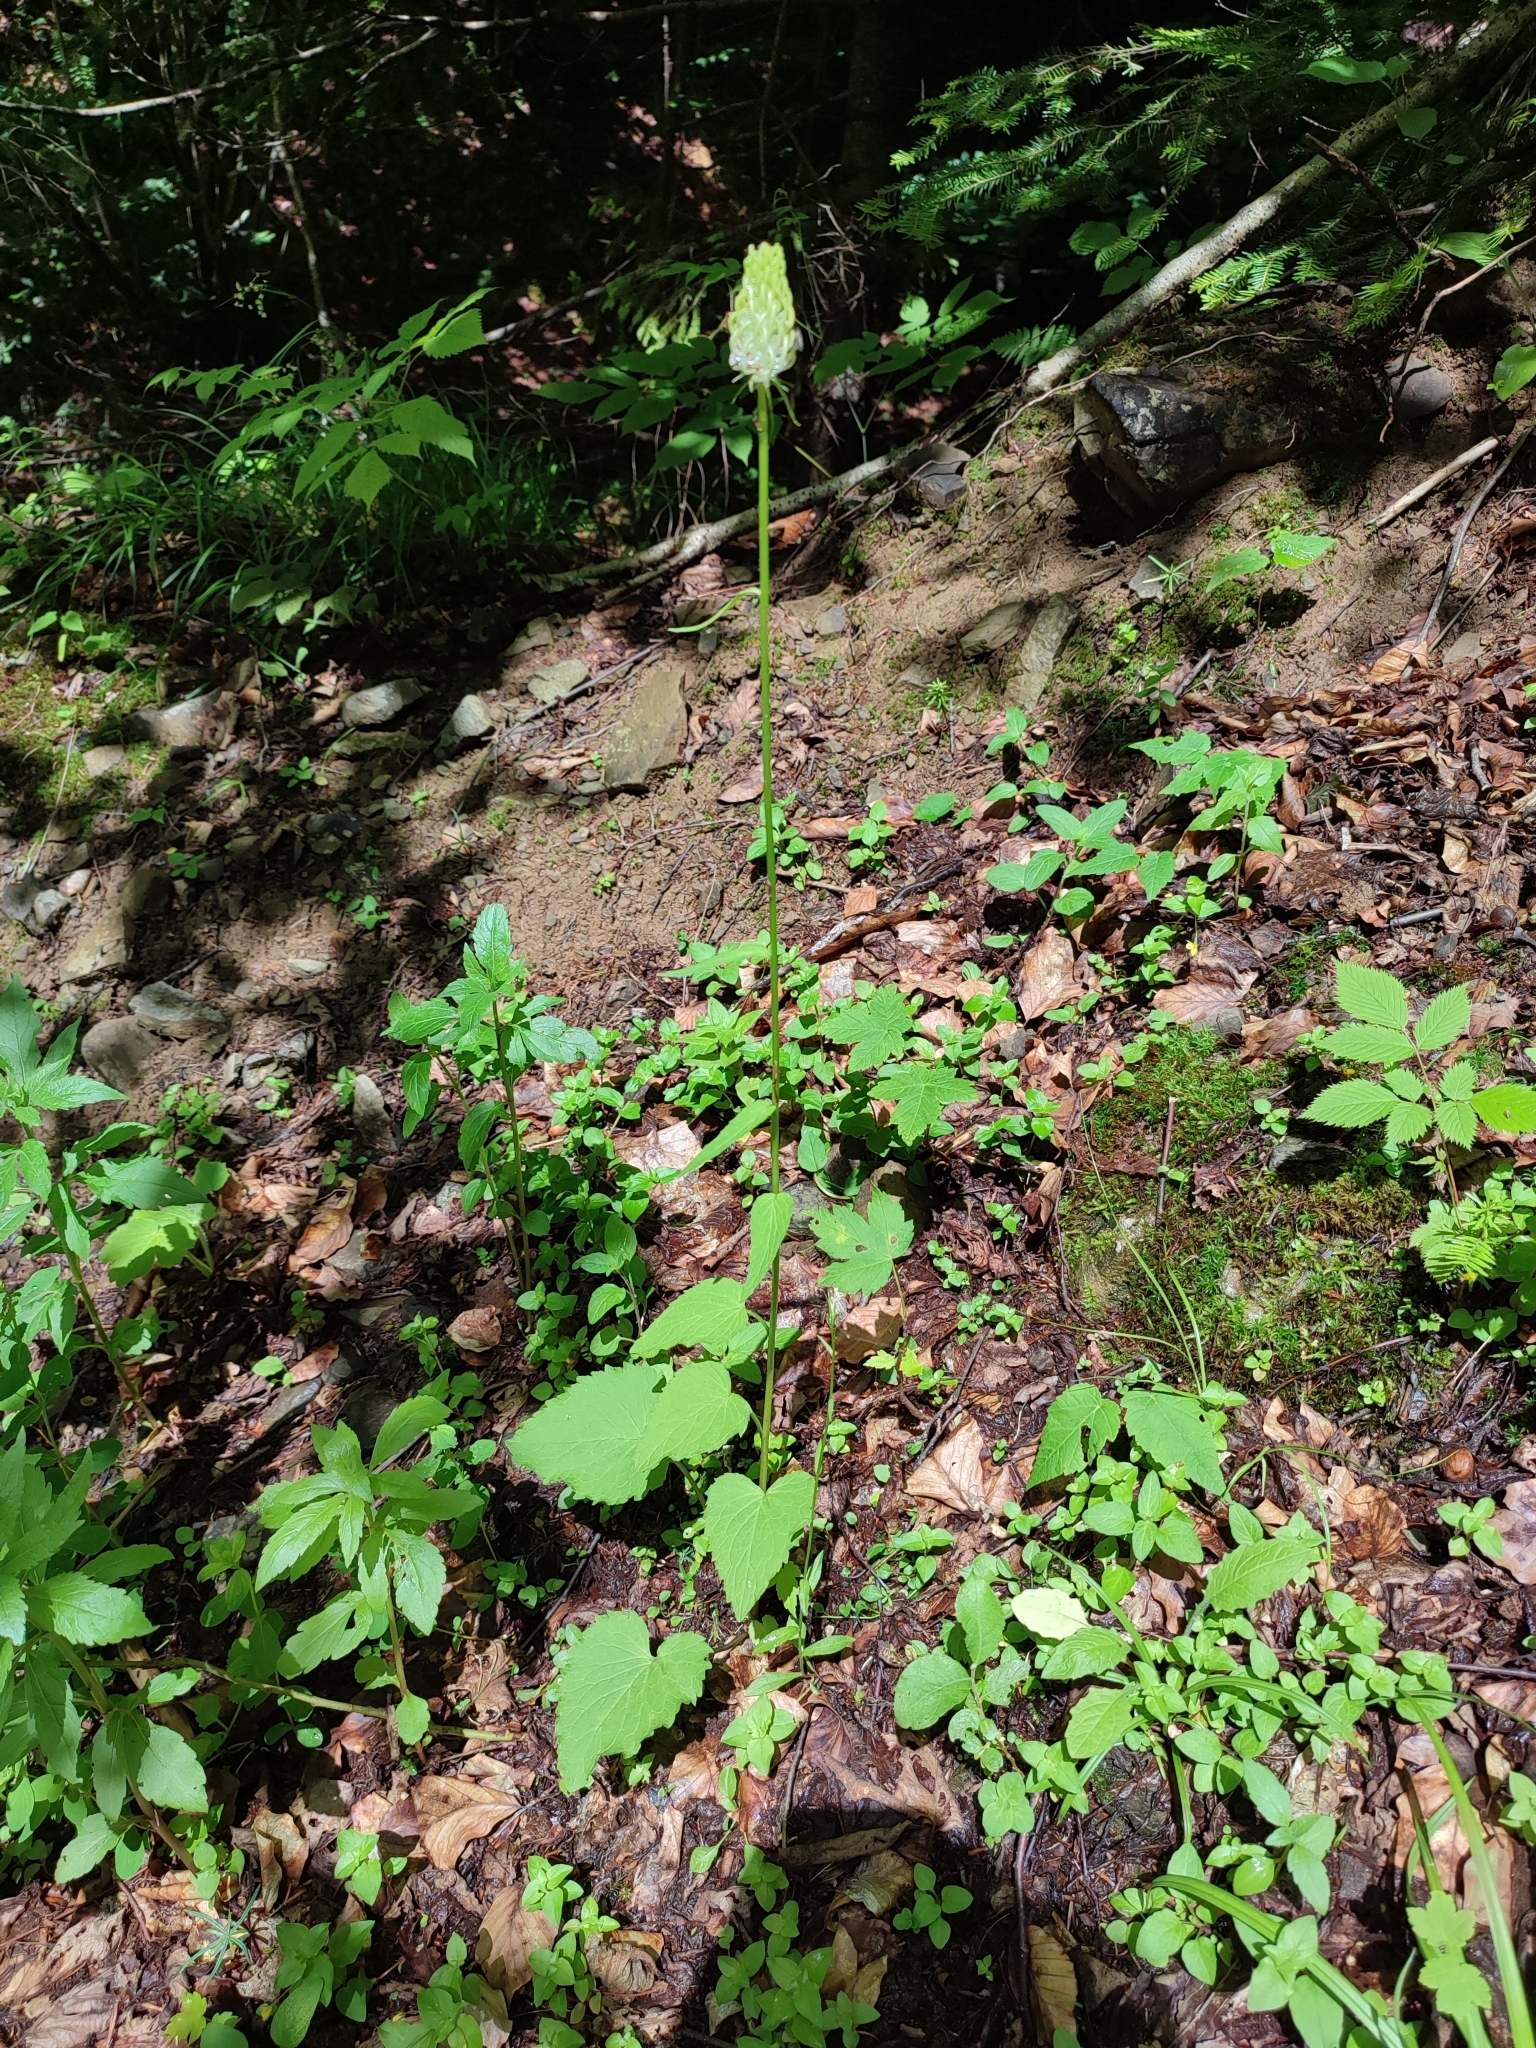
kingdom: Plantae
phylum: Tracheophyta
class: Magnoliopsida
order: Asterales
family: Campanulaceae
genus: Phyteuma
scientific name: Phyteuma spicatum
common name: Spiked rampion
